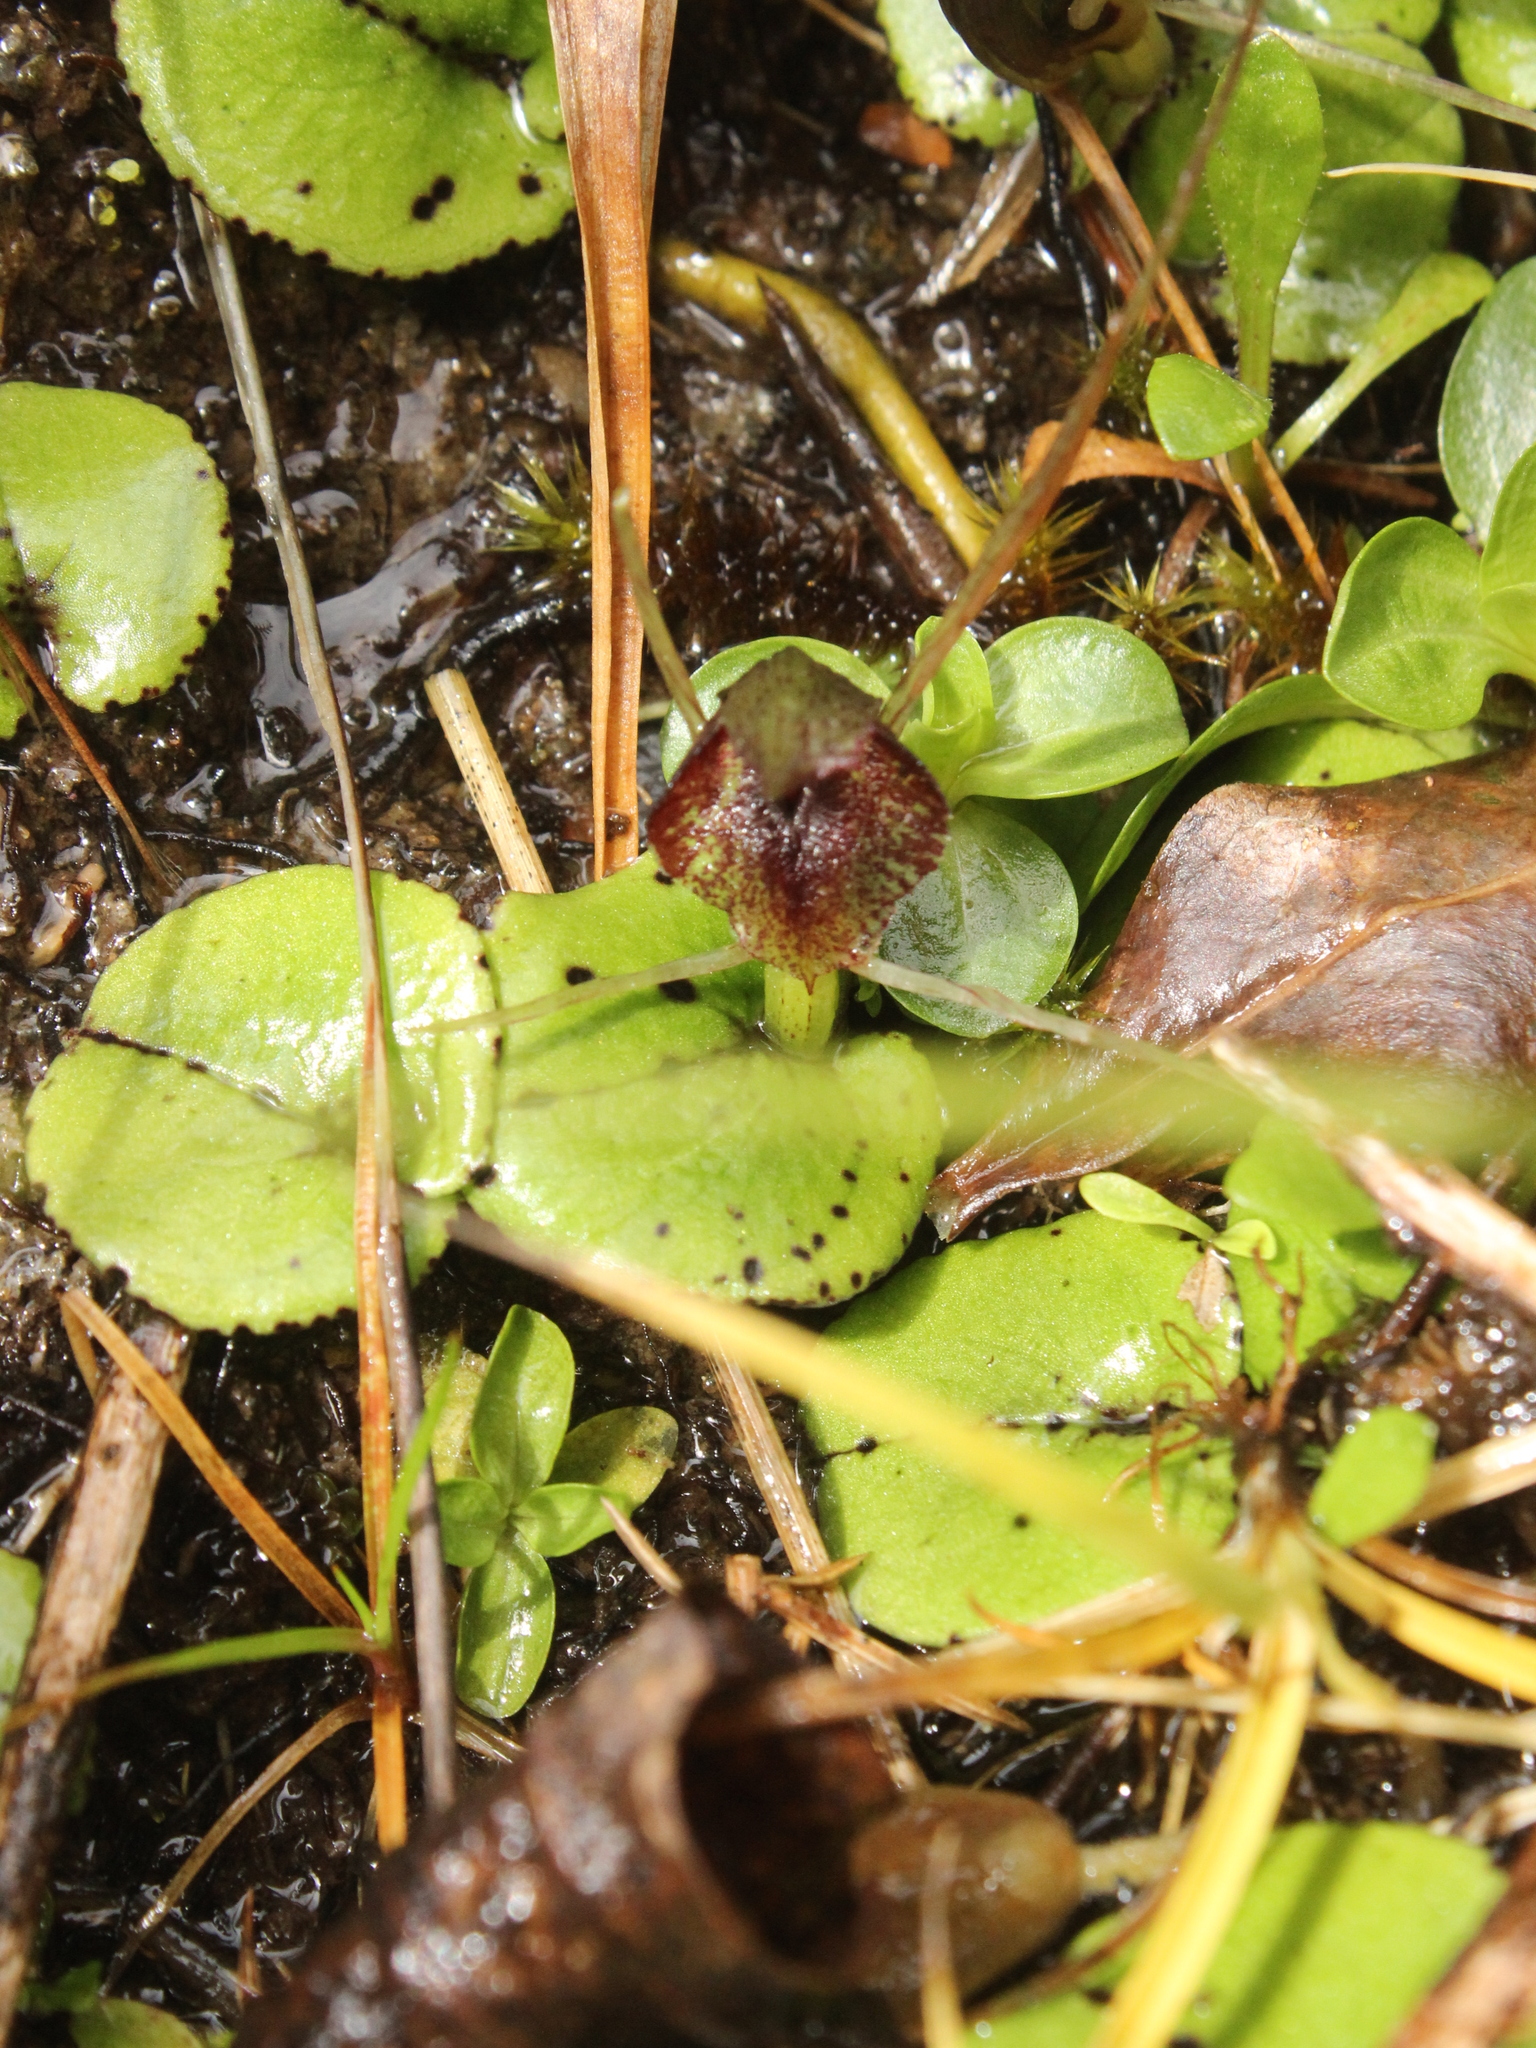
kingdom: Plantae
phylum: Tracheophyta
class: Liliopsida
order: Asparagales
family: Orchidaceae
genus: Corybas
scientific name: Corybas hatchii
